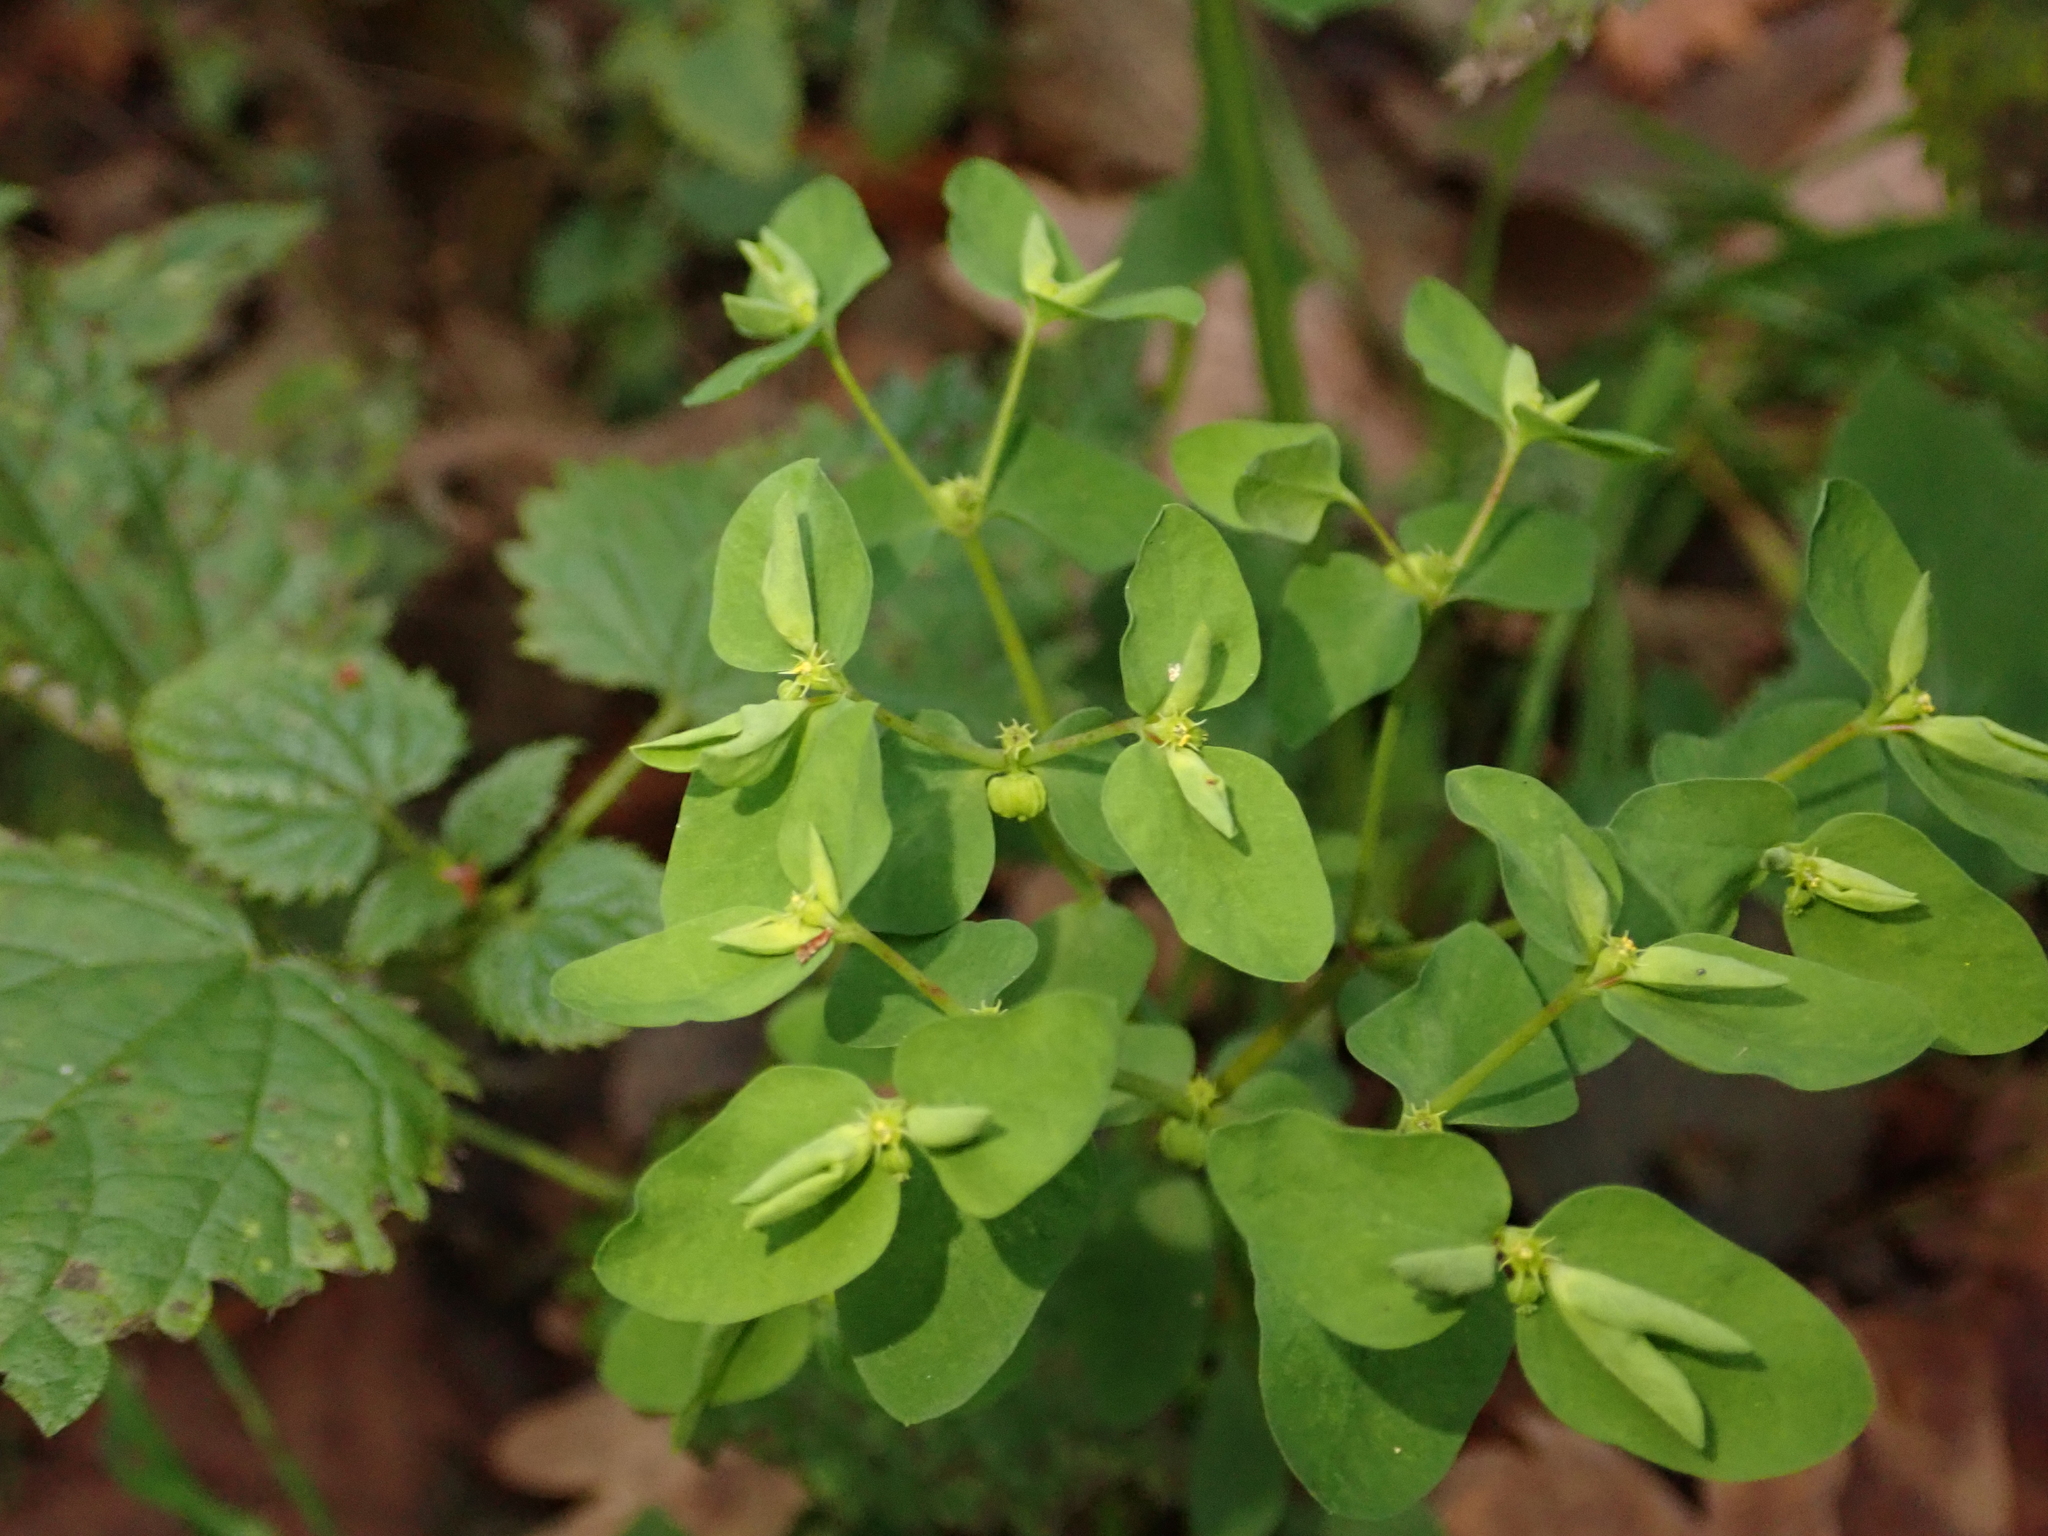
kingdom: Plantae
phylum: Tracheophyta
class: Magnoliopsida
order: Malpighiales
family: Euphorbiaceae
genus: Euphorbia
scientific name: Euphorbia peplus
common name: Petty spurge
